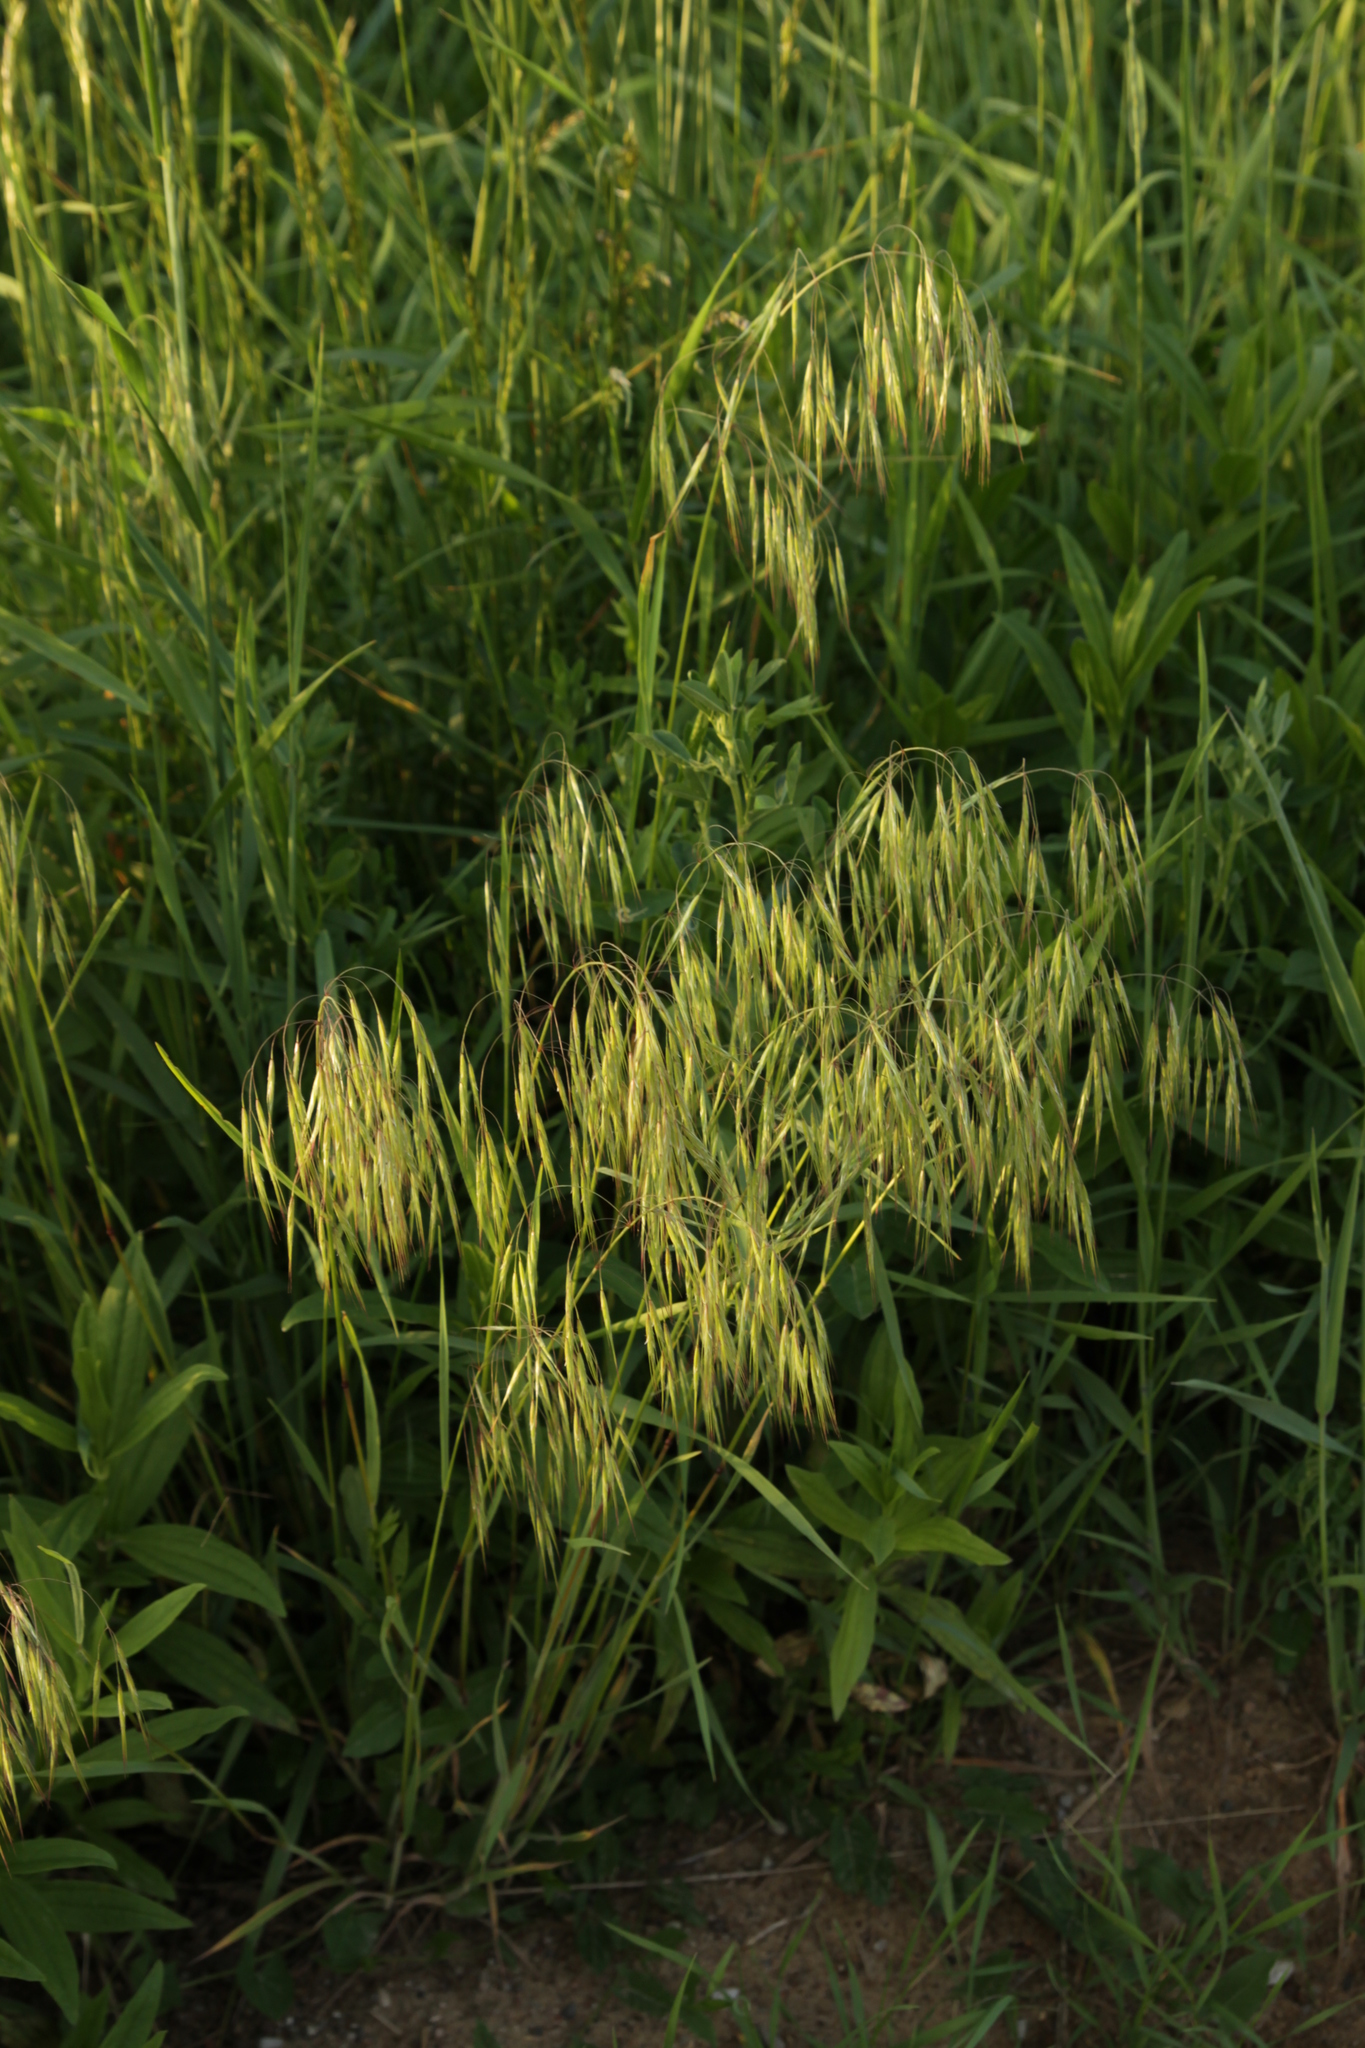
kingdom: Plantae
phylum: Tracheophyta
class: Liliopsida
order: Poales
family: Poaceae
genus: Bromus
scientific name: Bromus tectorum
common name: Cheatgrass
